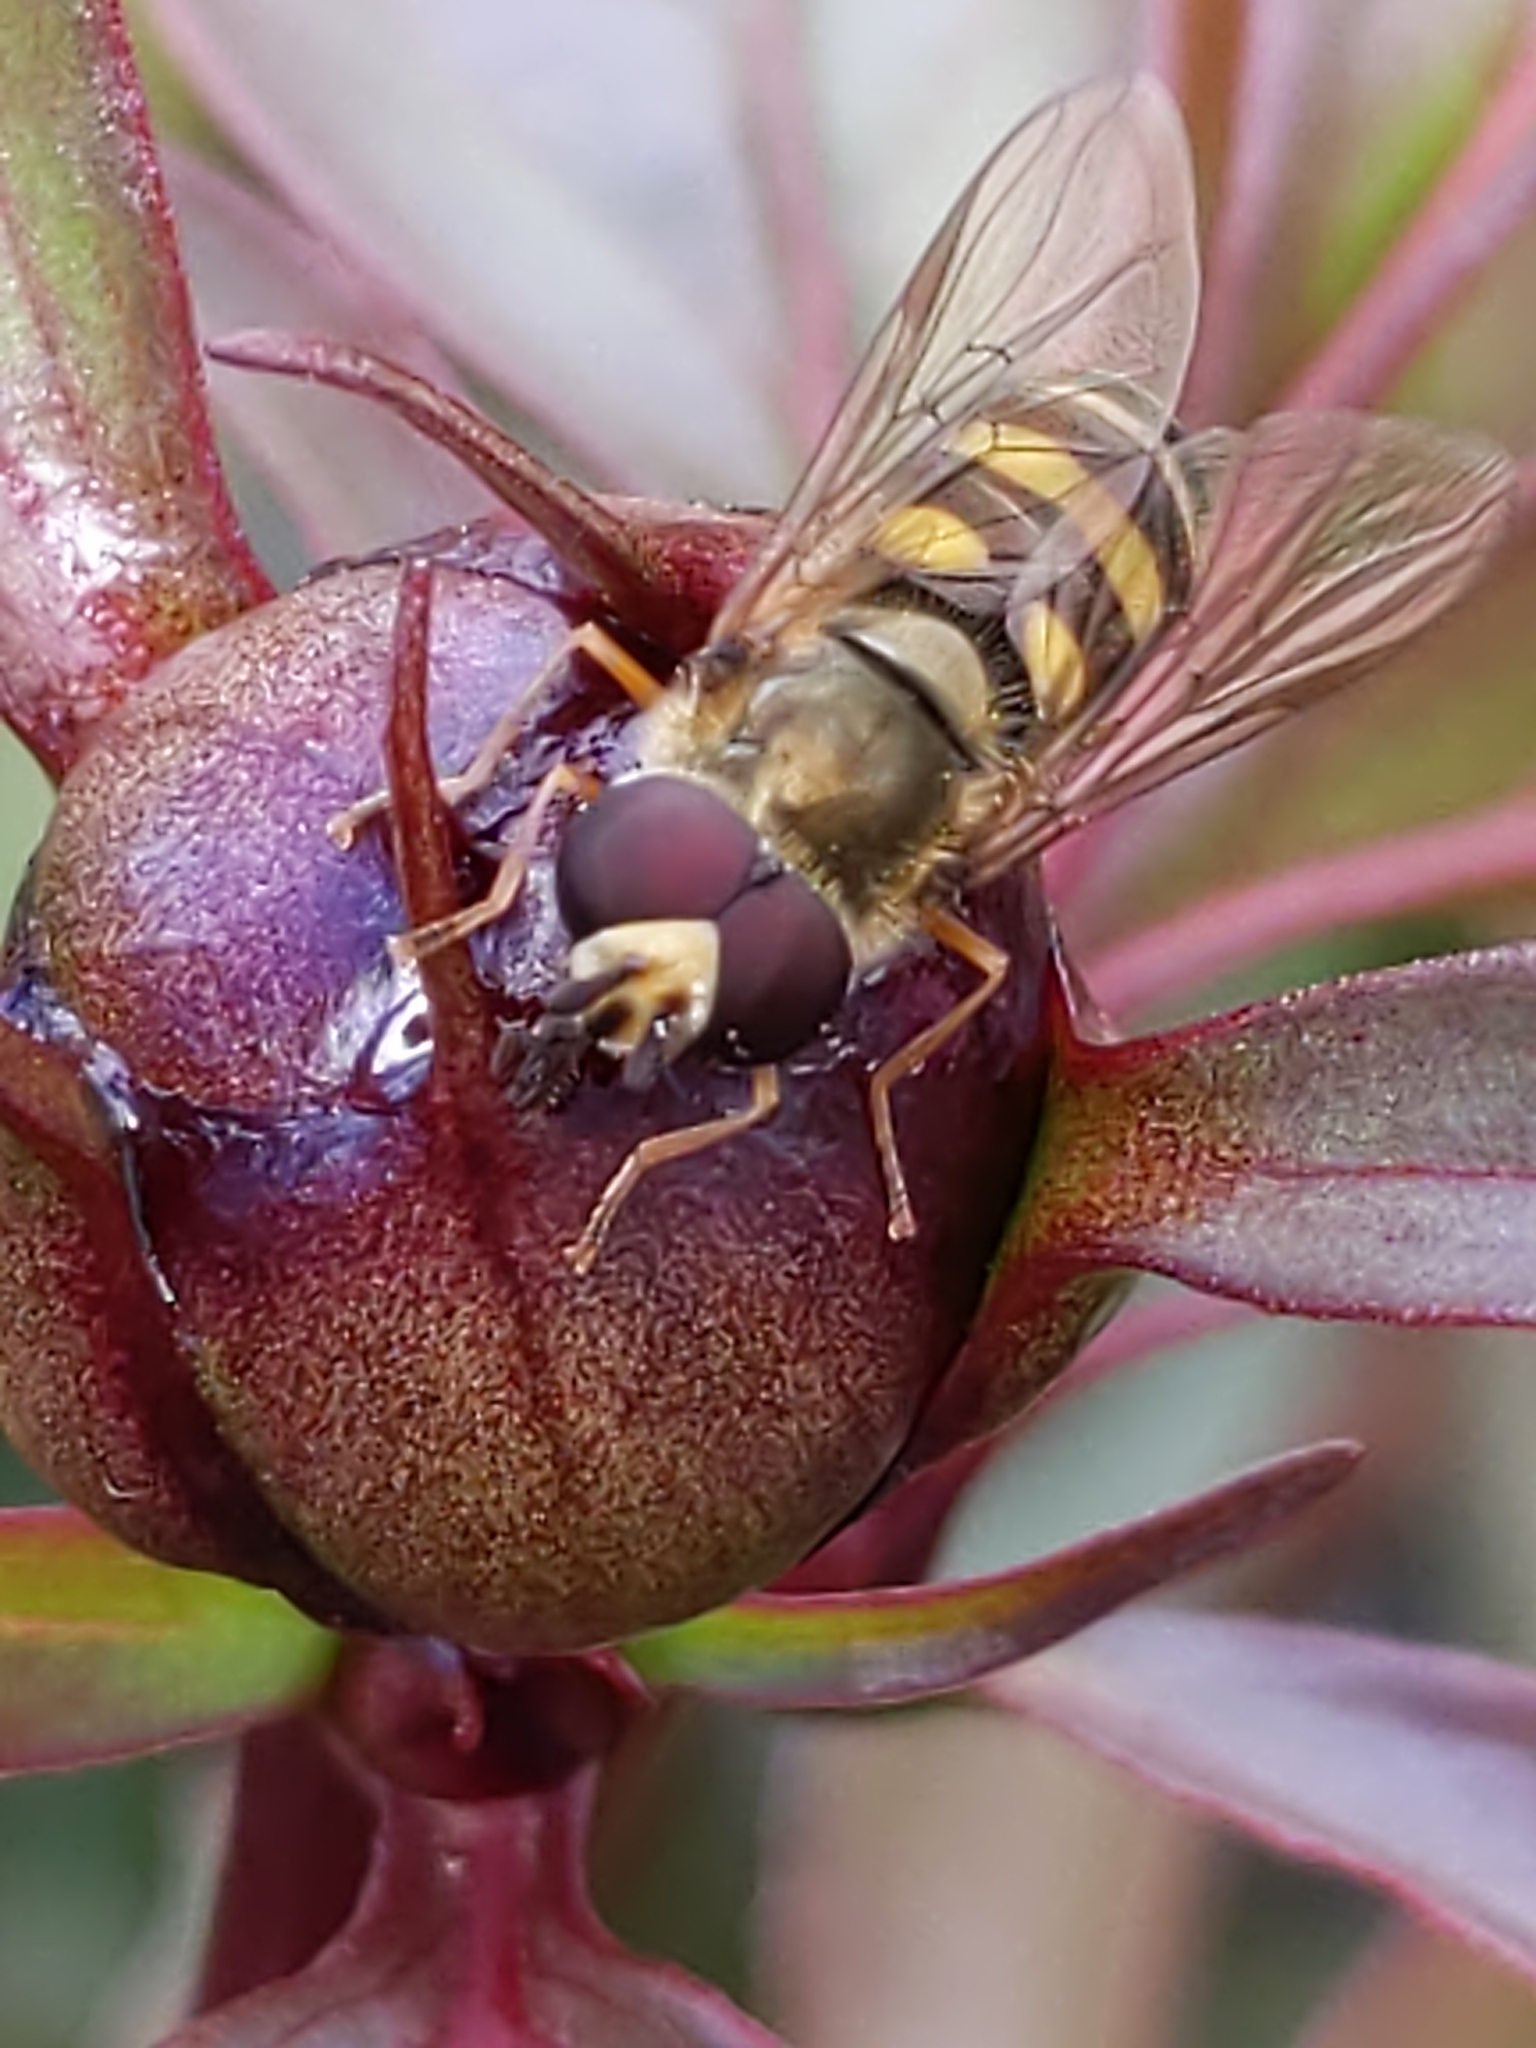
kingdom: Animalia
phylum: Arthropoda
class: Insecta
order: Diptera
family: Syrphidae
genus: Eupeodes
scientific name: Eupeodes
